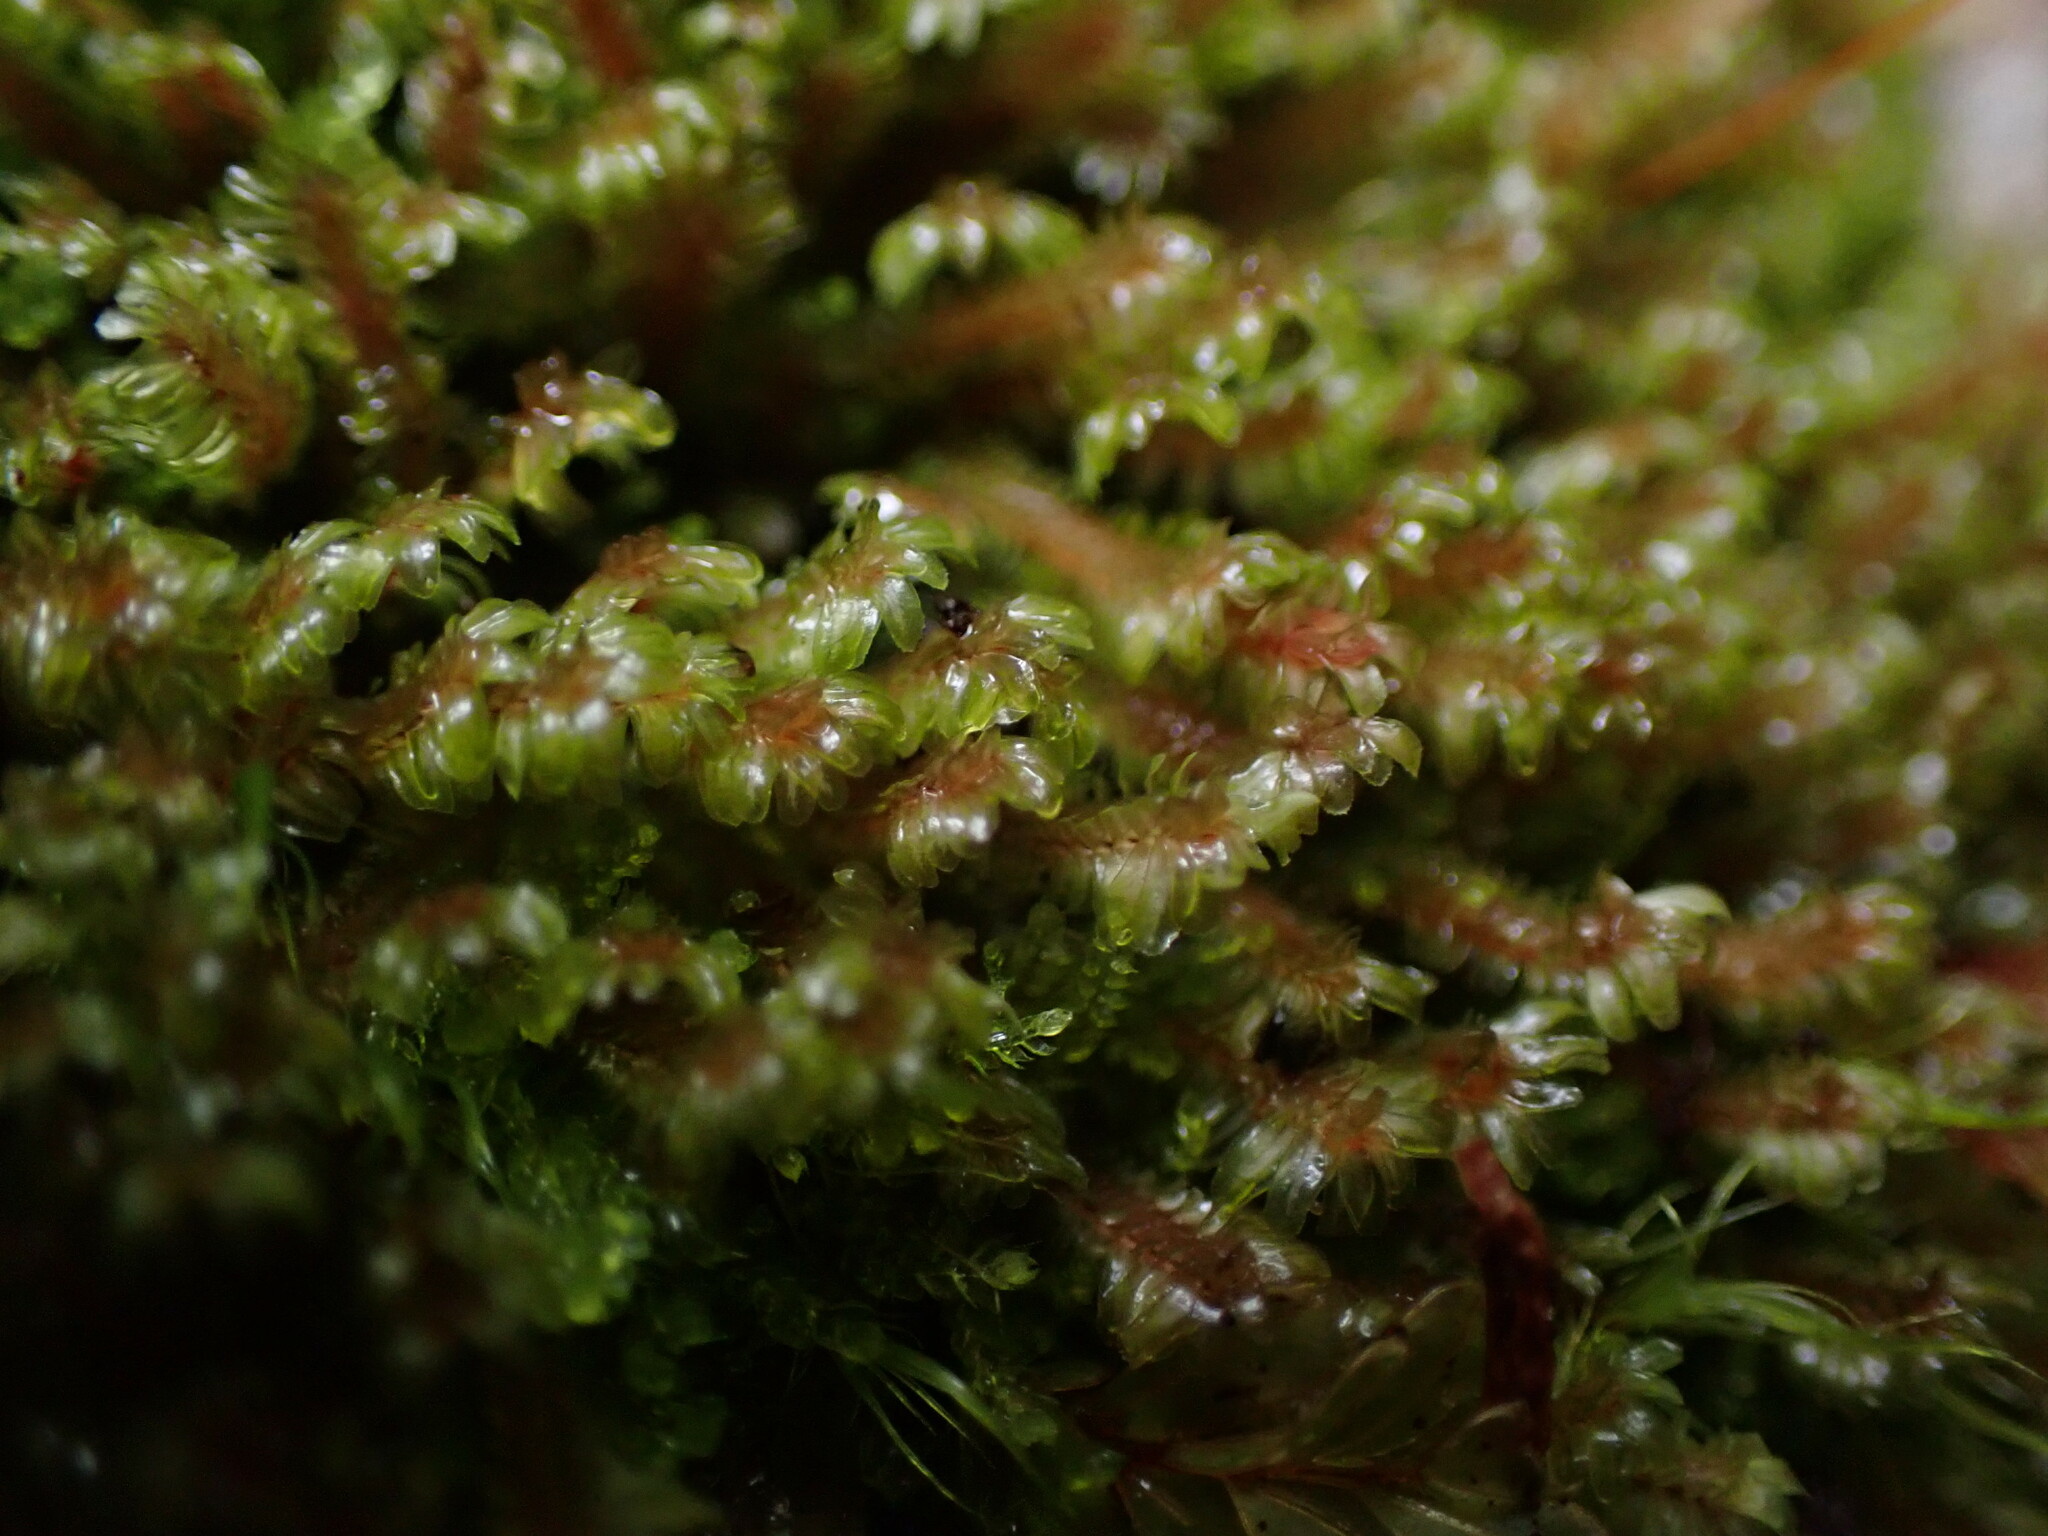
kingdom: Plantae
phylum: Marchantiophyta
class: Jungermanniopsida
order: Jungermanniales
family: Scapaniaceae
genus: Diplophyllum
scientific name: Diplophyllum albicans
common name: White earwort
